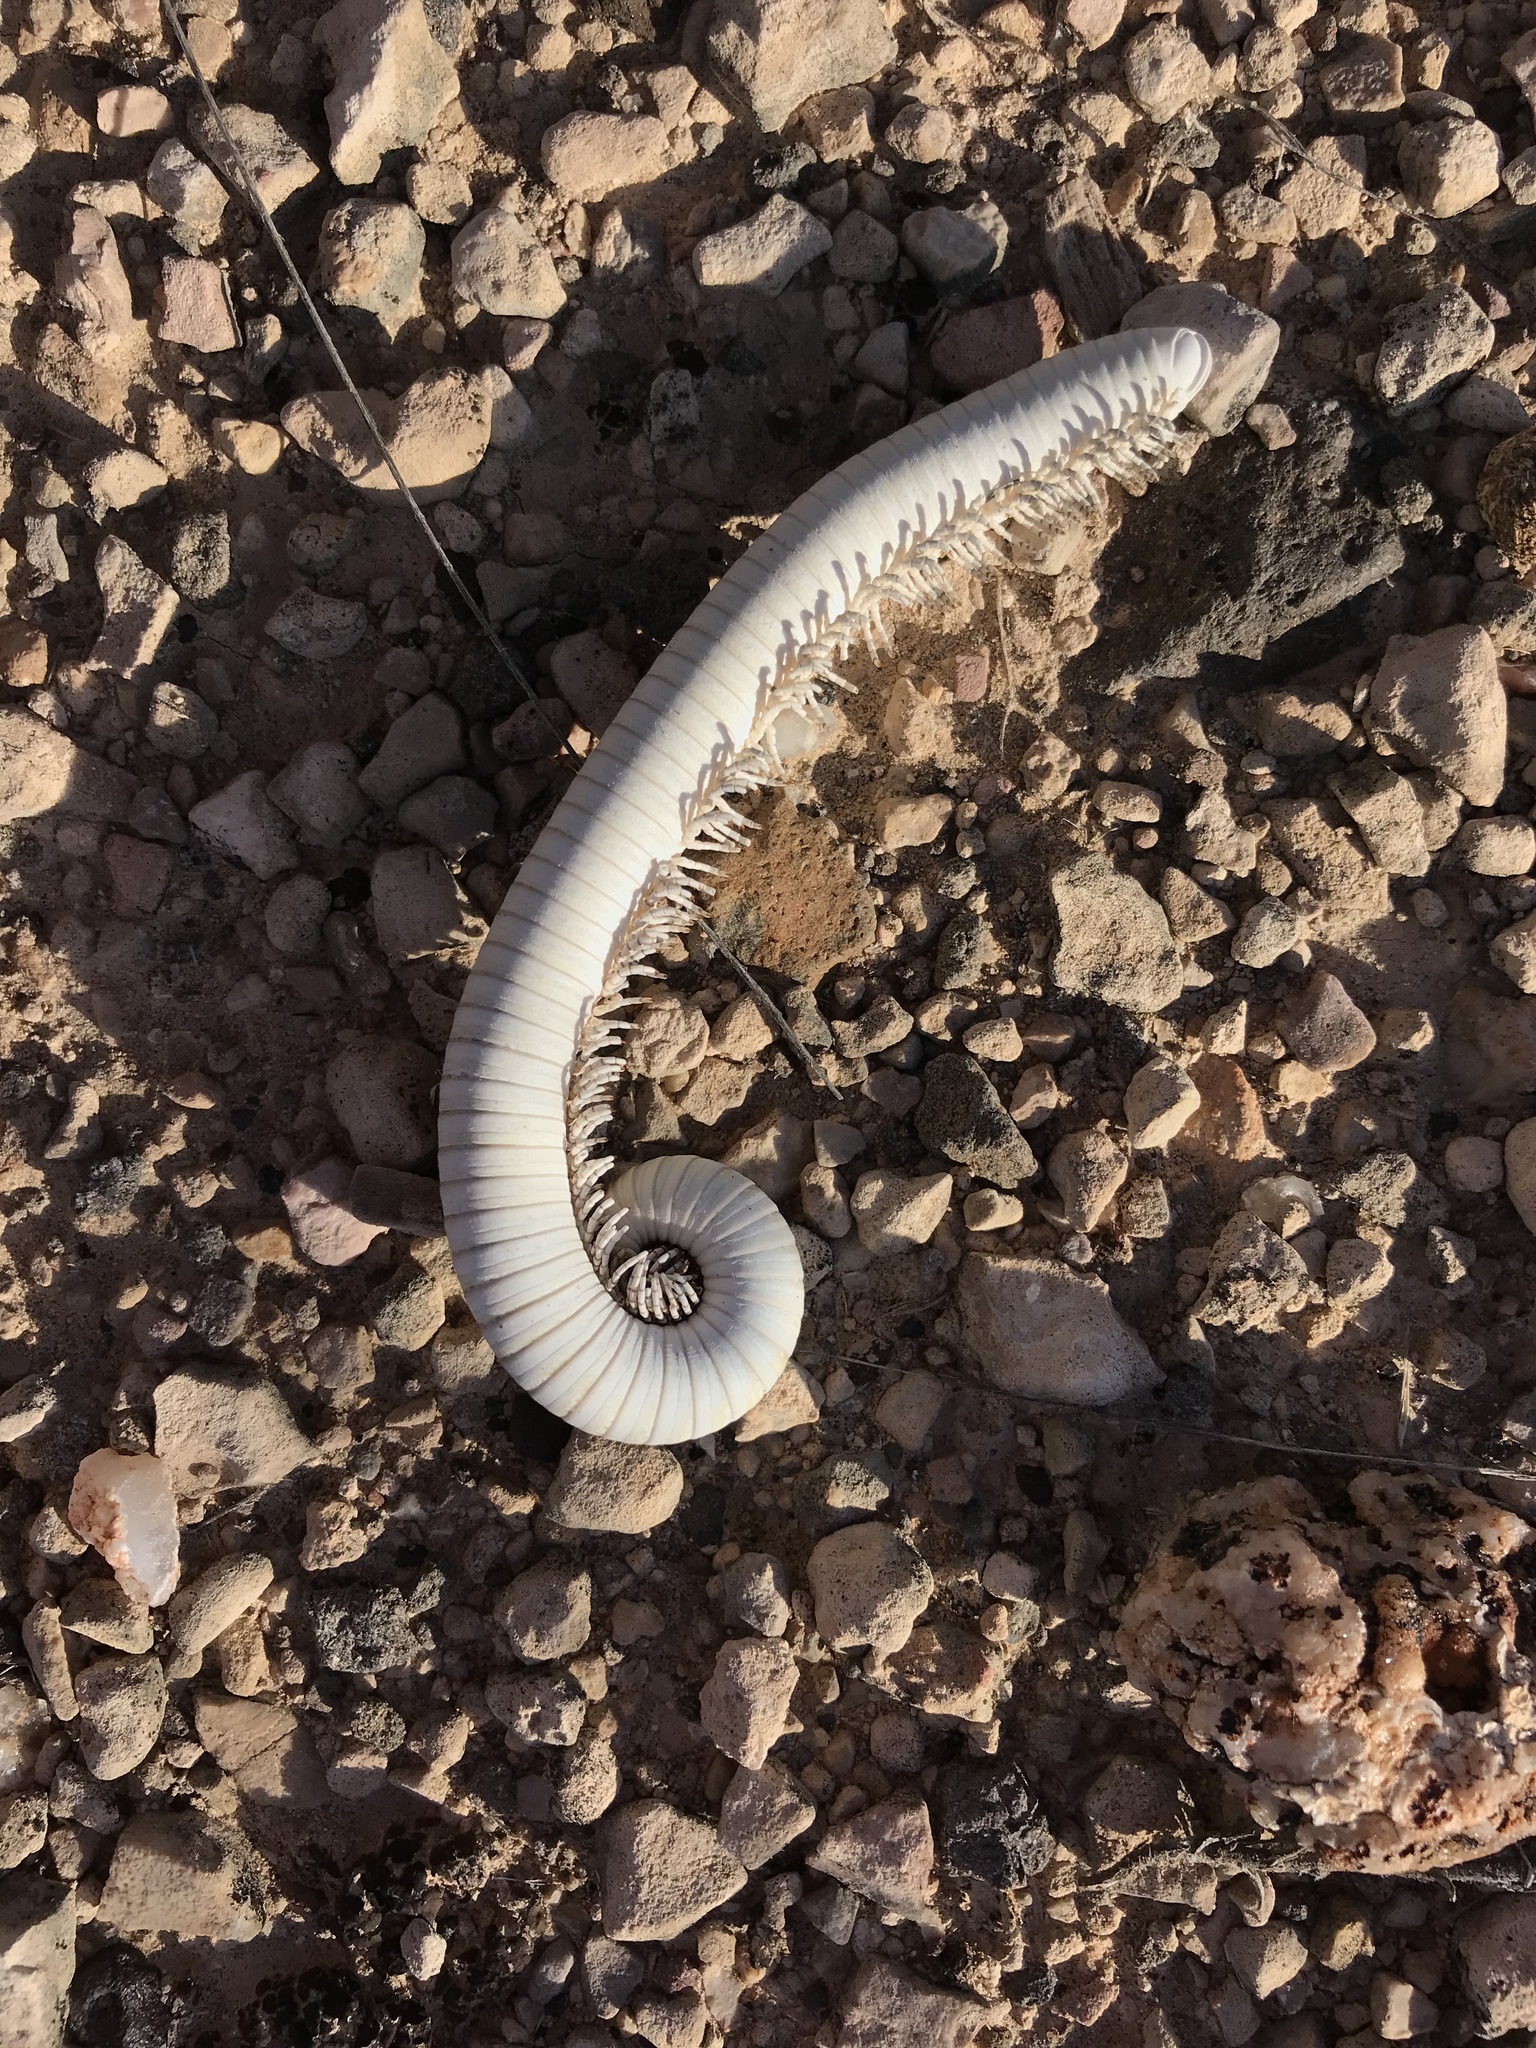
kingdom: Animalia
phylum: Arthropoda
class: Diplopoda
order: Spirostreptida
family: Spirostreptidae
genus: Orthoporus
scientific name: Orthoporus ornatus
